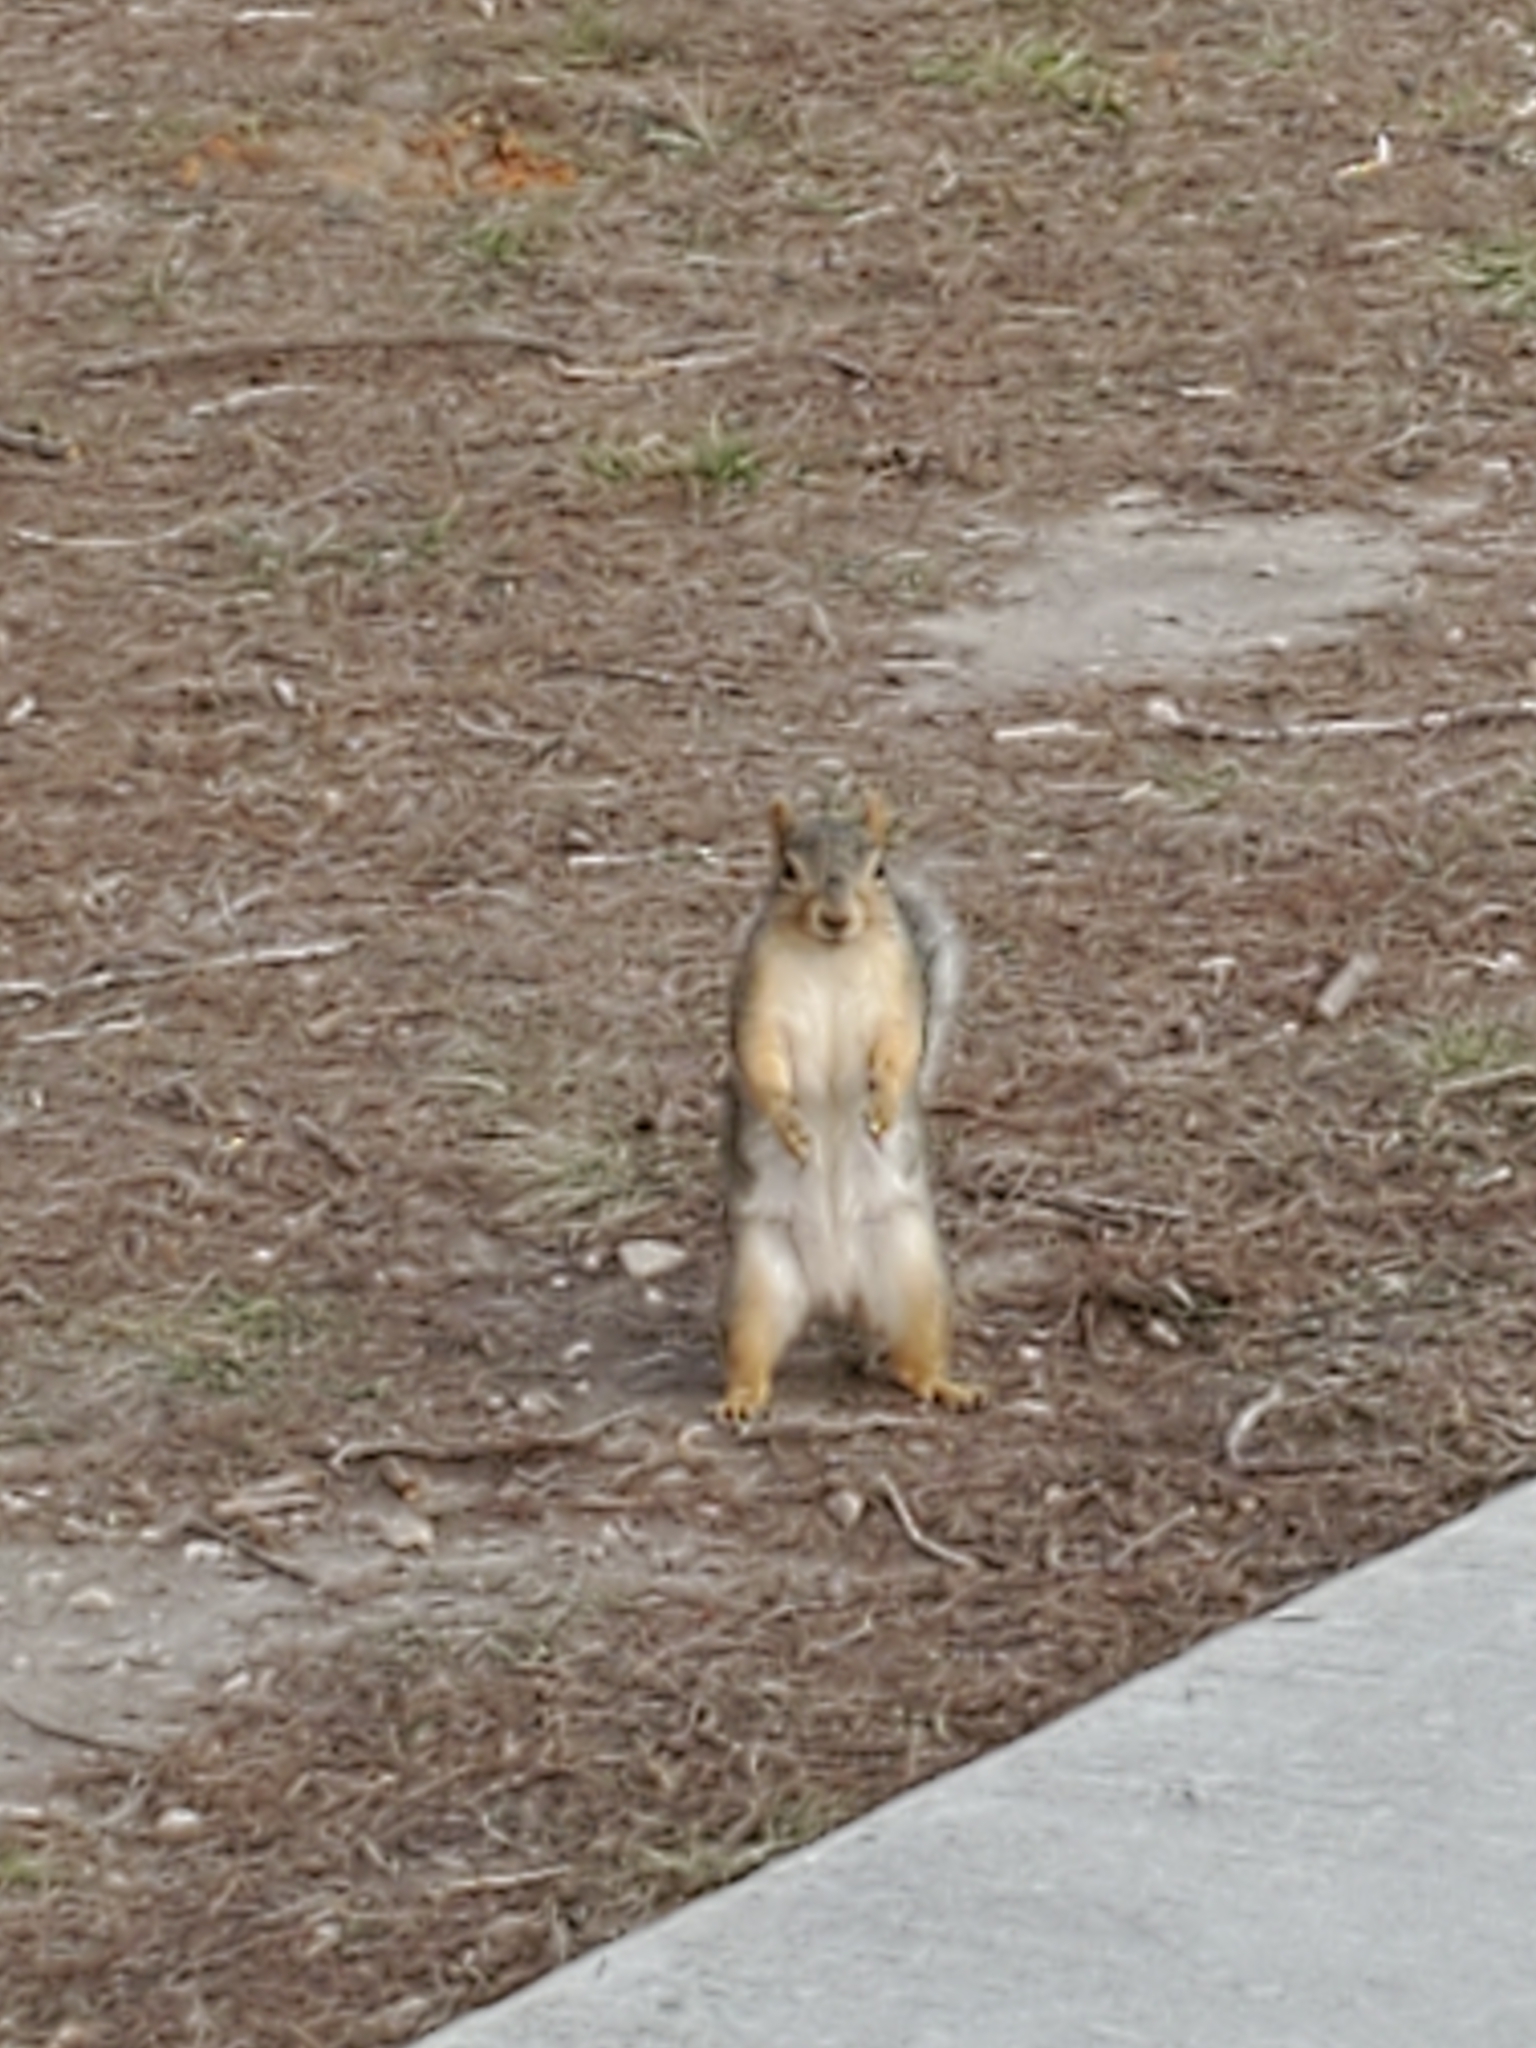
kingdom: Animalia
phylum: Chordata
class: Mammalia
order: Rodentia
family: Sciuridae
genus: Sciurus
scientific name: Sciurus niger
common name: Fox squirrel
